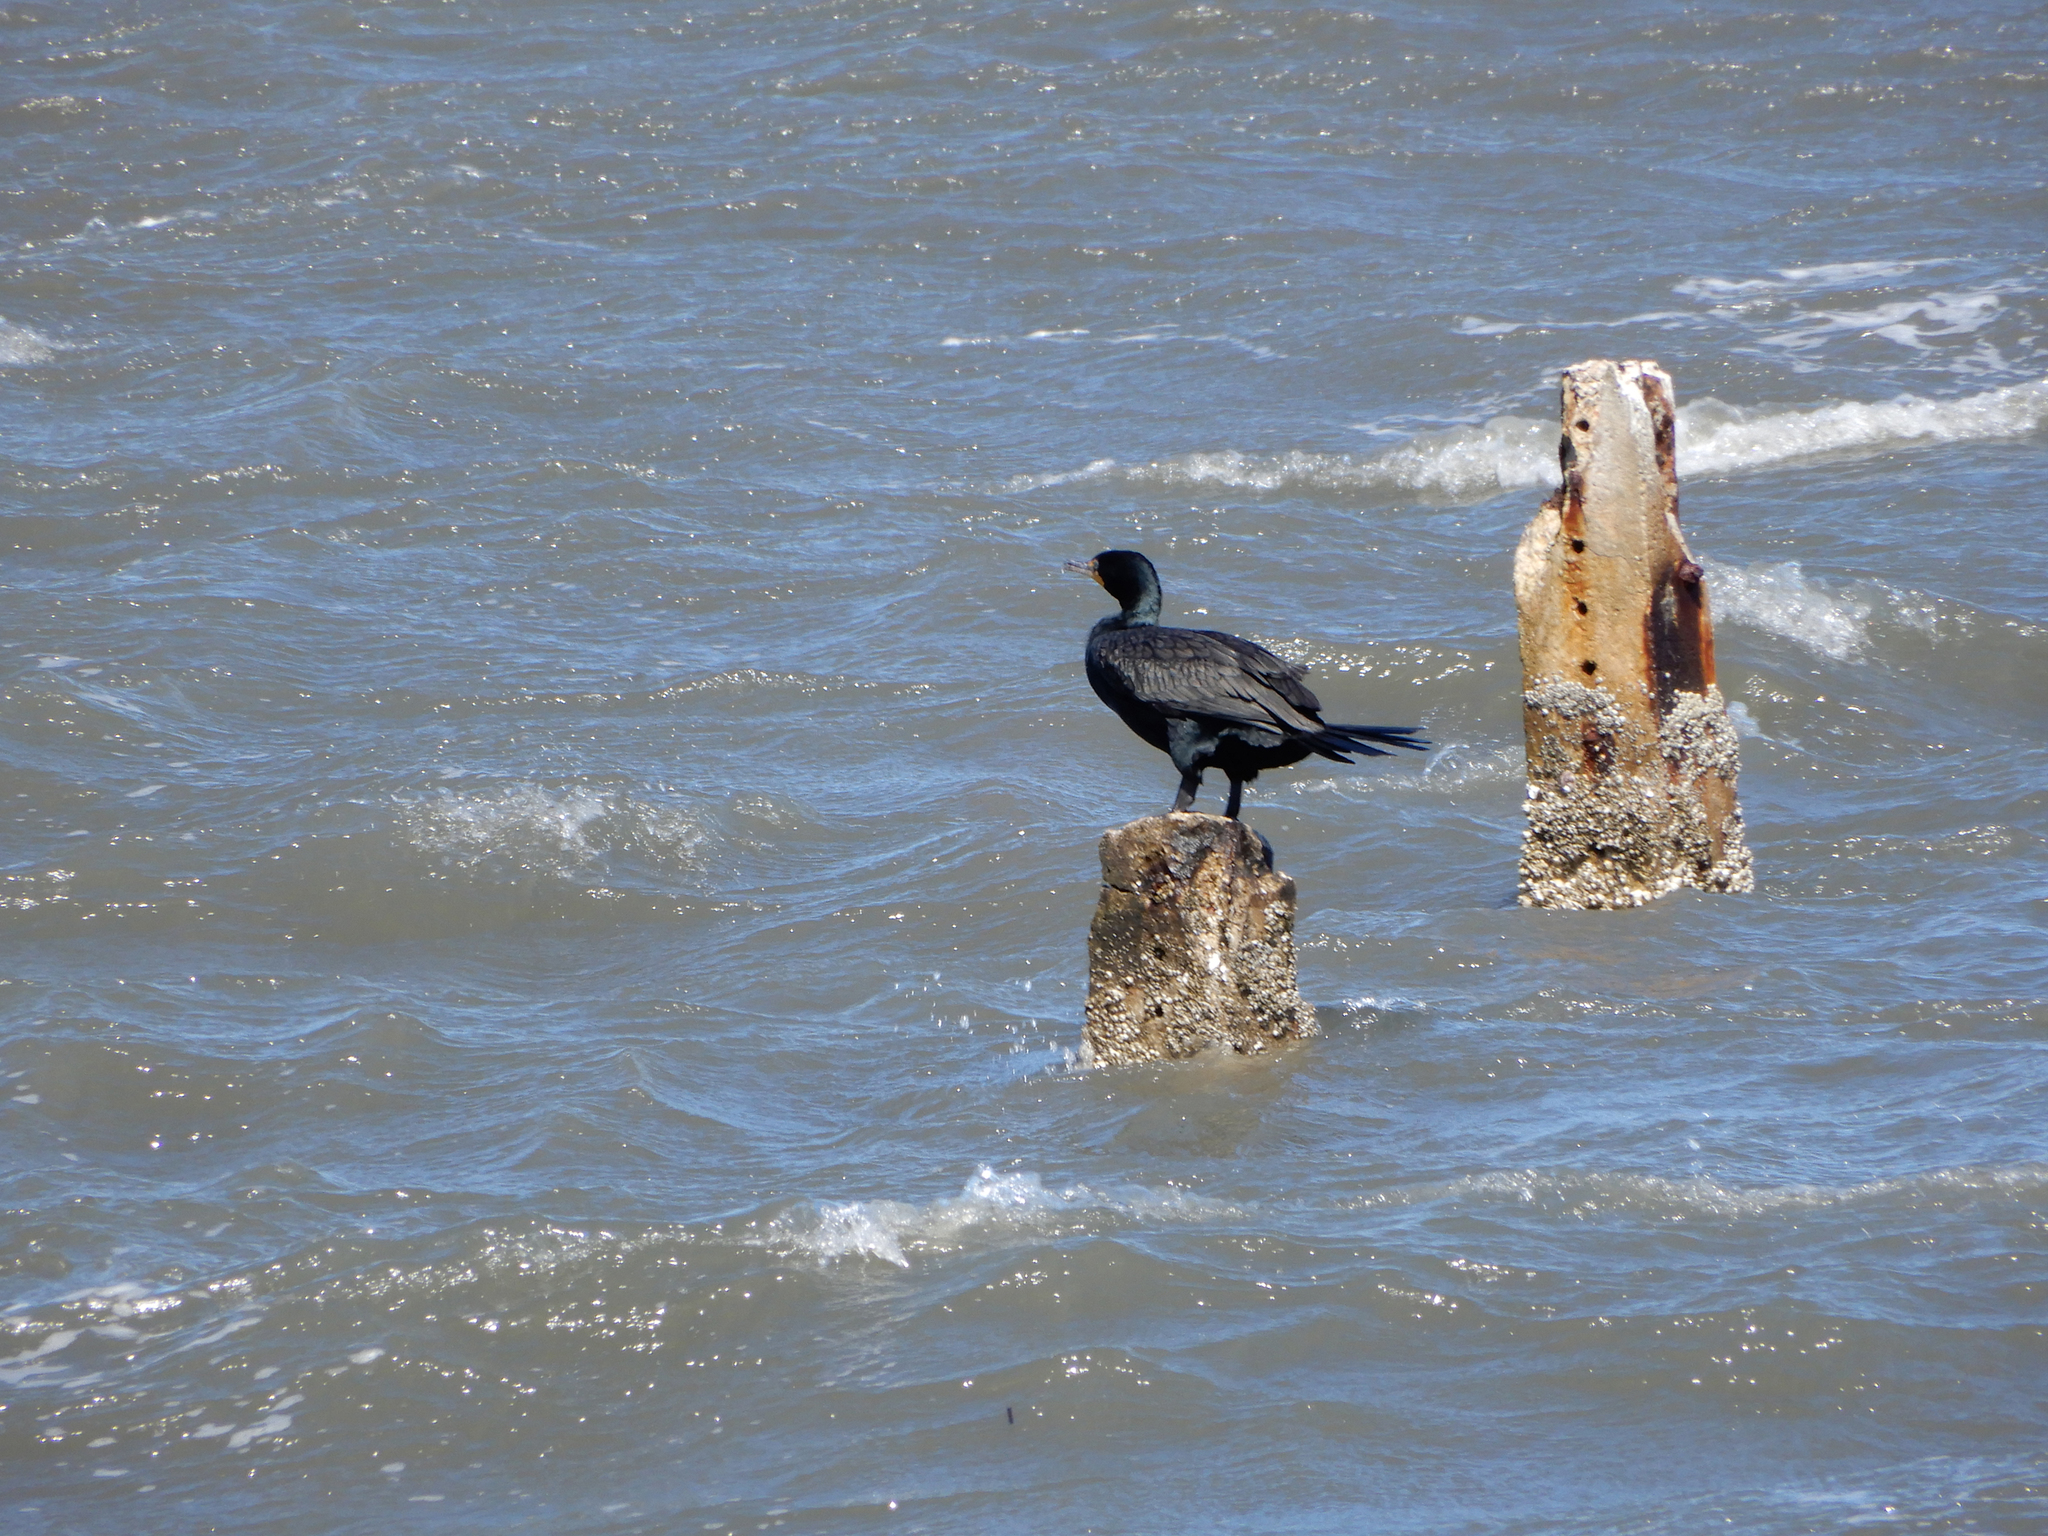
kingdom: Animalia
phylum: Chordata
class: Aves
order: Suliformes
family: Phalacrocoracidae
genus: Phalacrocorax
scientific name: Phalacrocorax auritus
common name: Double-crested cormorant
